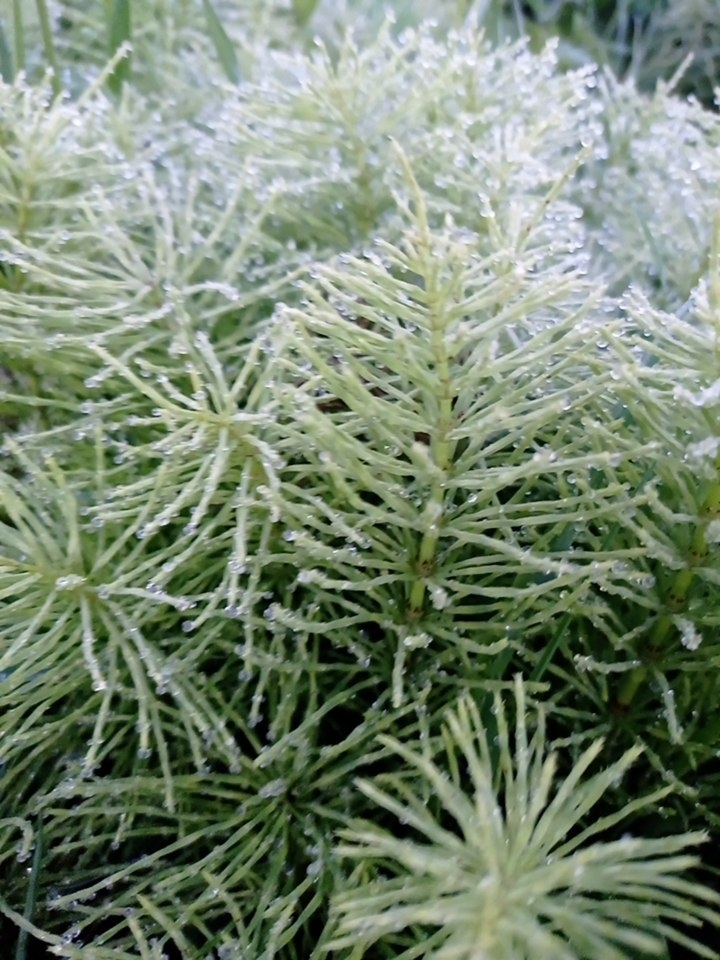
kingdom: Plantae
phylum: Tracheophyta
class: Polypodiopsida
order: Equisetales
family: Equisetaceae
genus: Equisetum
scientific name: Equisetum arvense
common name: Field horsetail
